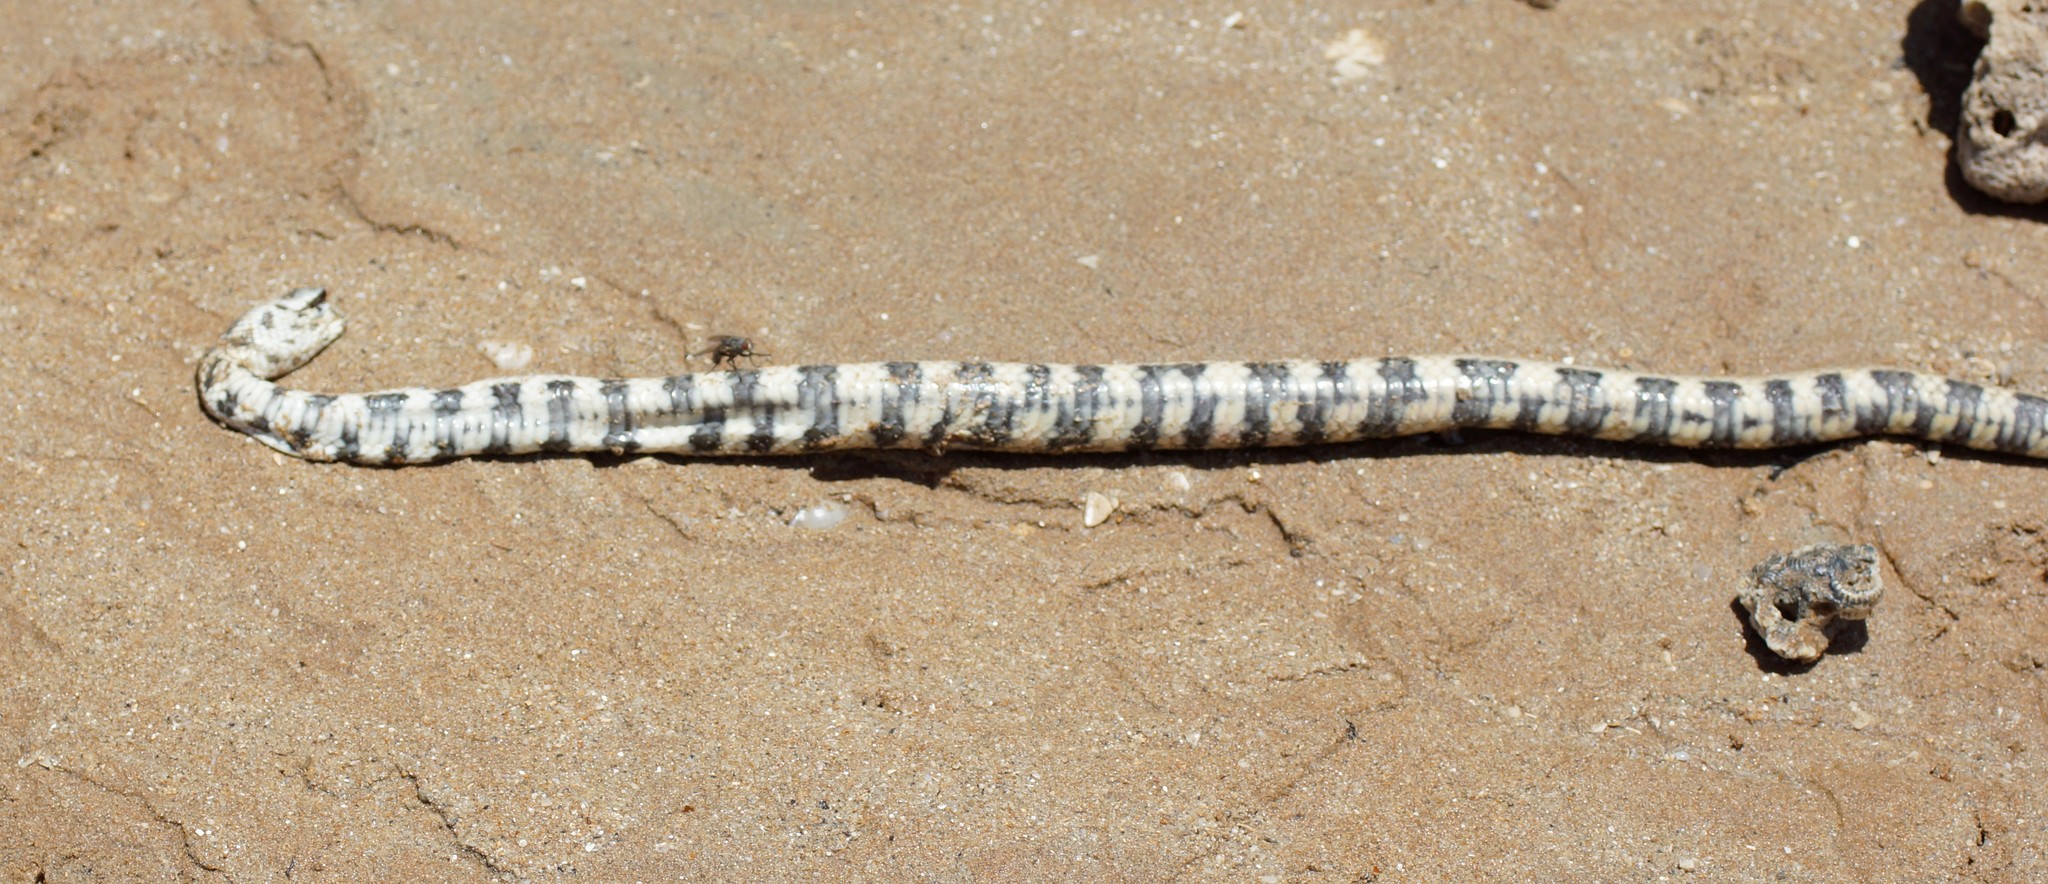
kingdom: Animalia
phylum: Chordata
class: Squamata
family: Elapidae
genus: Hydrelaps
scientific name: Hydrelaps darwiniensis
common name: Black-ringed sea snake
